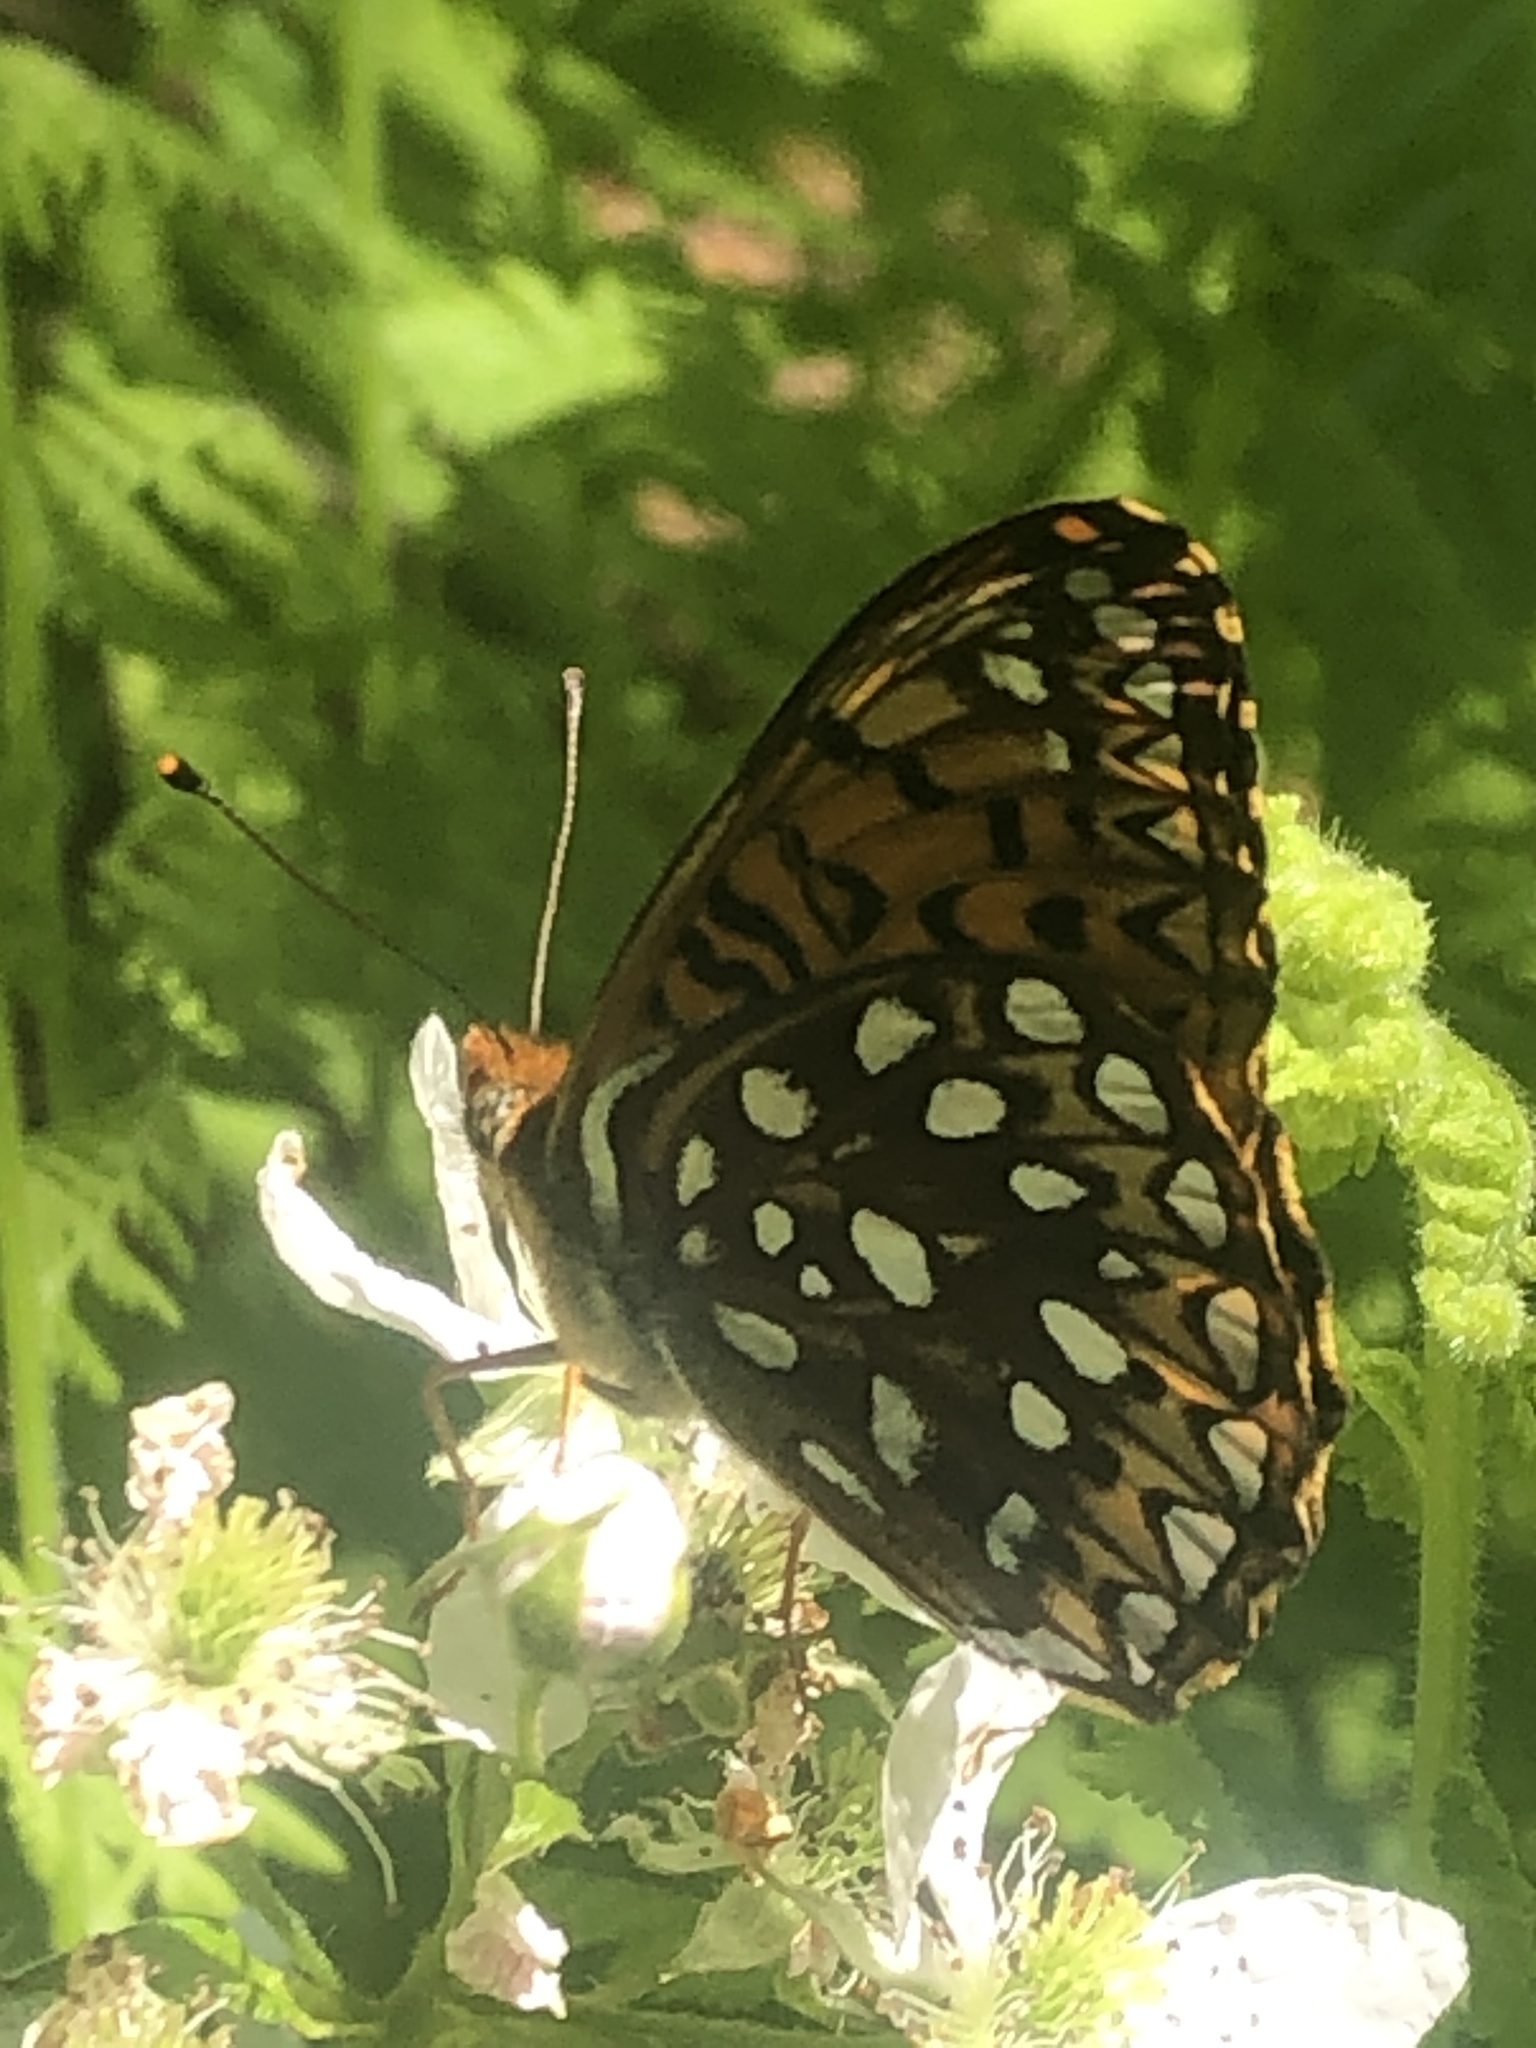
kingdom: Animalia
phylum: Arthropoda
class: Insecta
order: Lepidoptera
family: Nymphalidae
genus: Speyeria
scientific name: Speyeria atlantis
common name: Atlantis fritillary
